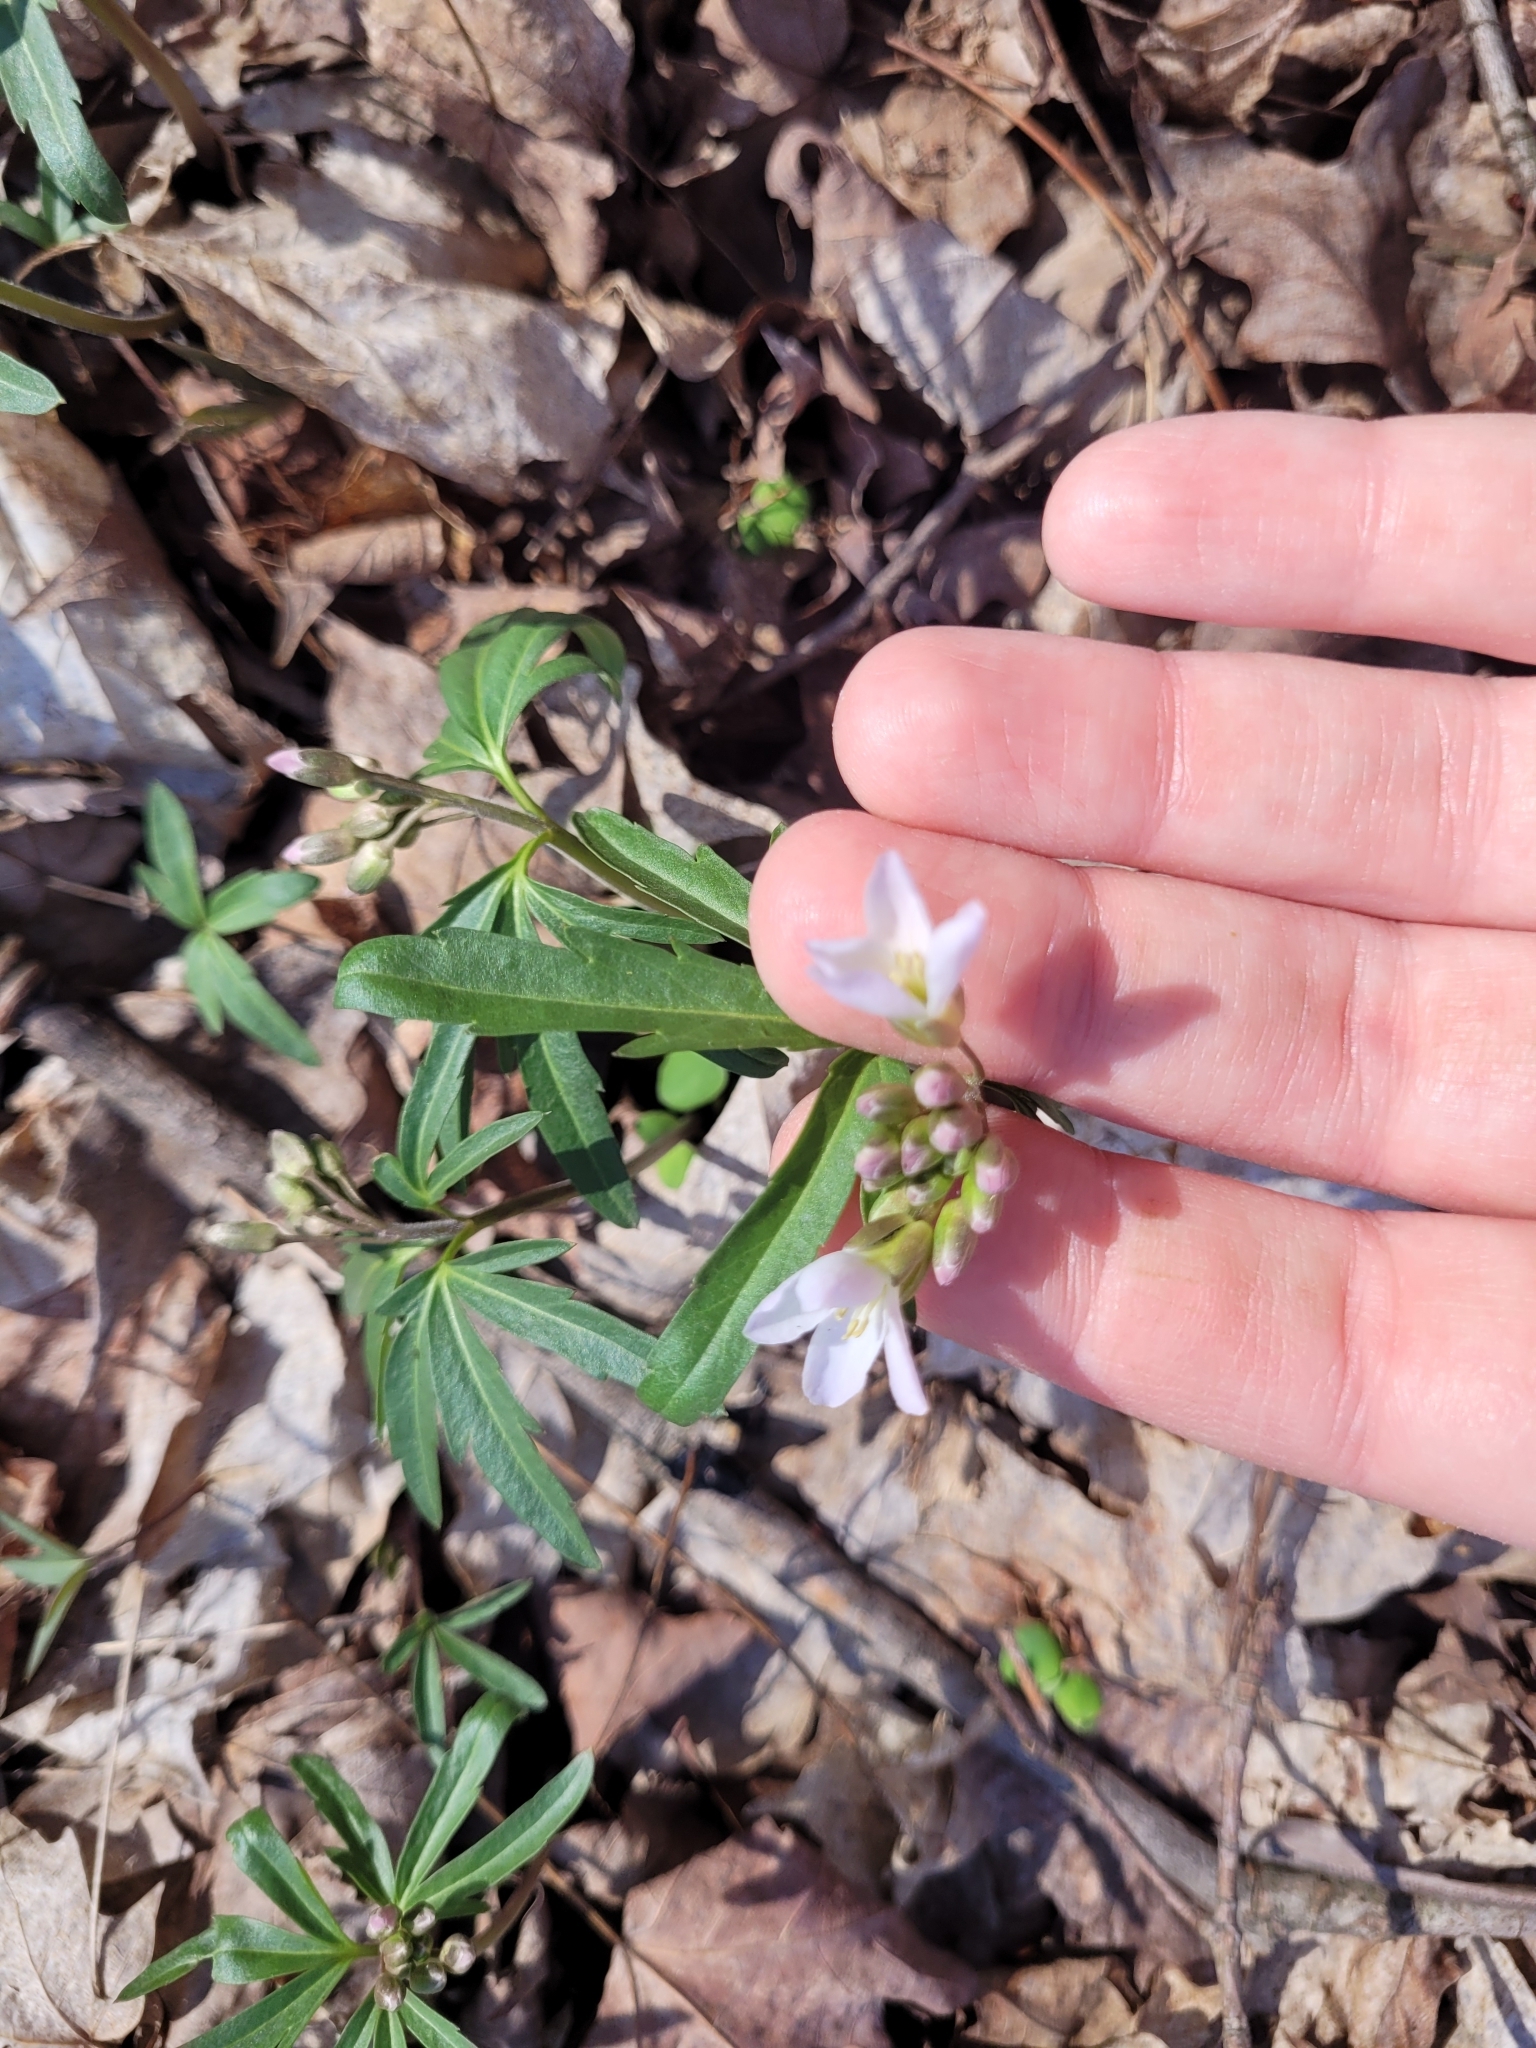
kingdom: Plantae
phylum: Tracheophyta
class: Magnoliopsida
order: Brassicales
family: Brassicaceae
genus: Cardamine
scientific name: Cardamine concatenata
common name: Cut-leaf toothcup
